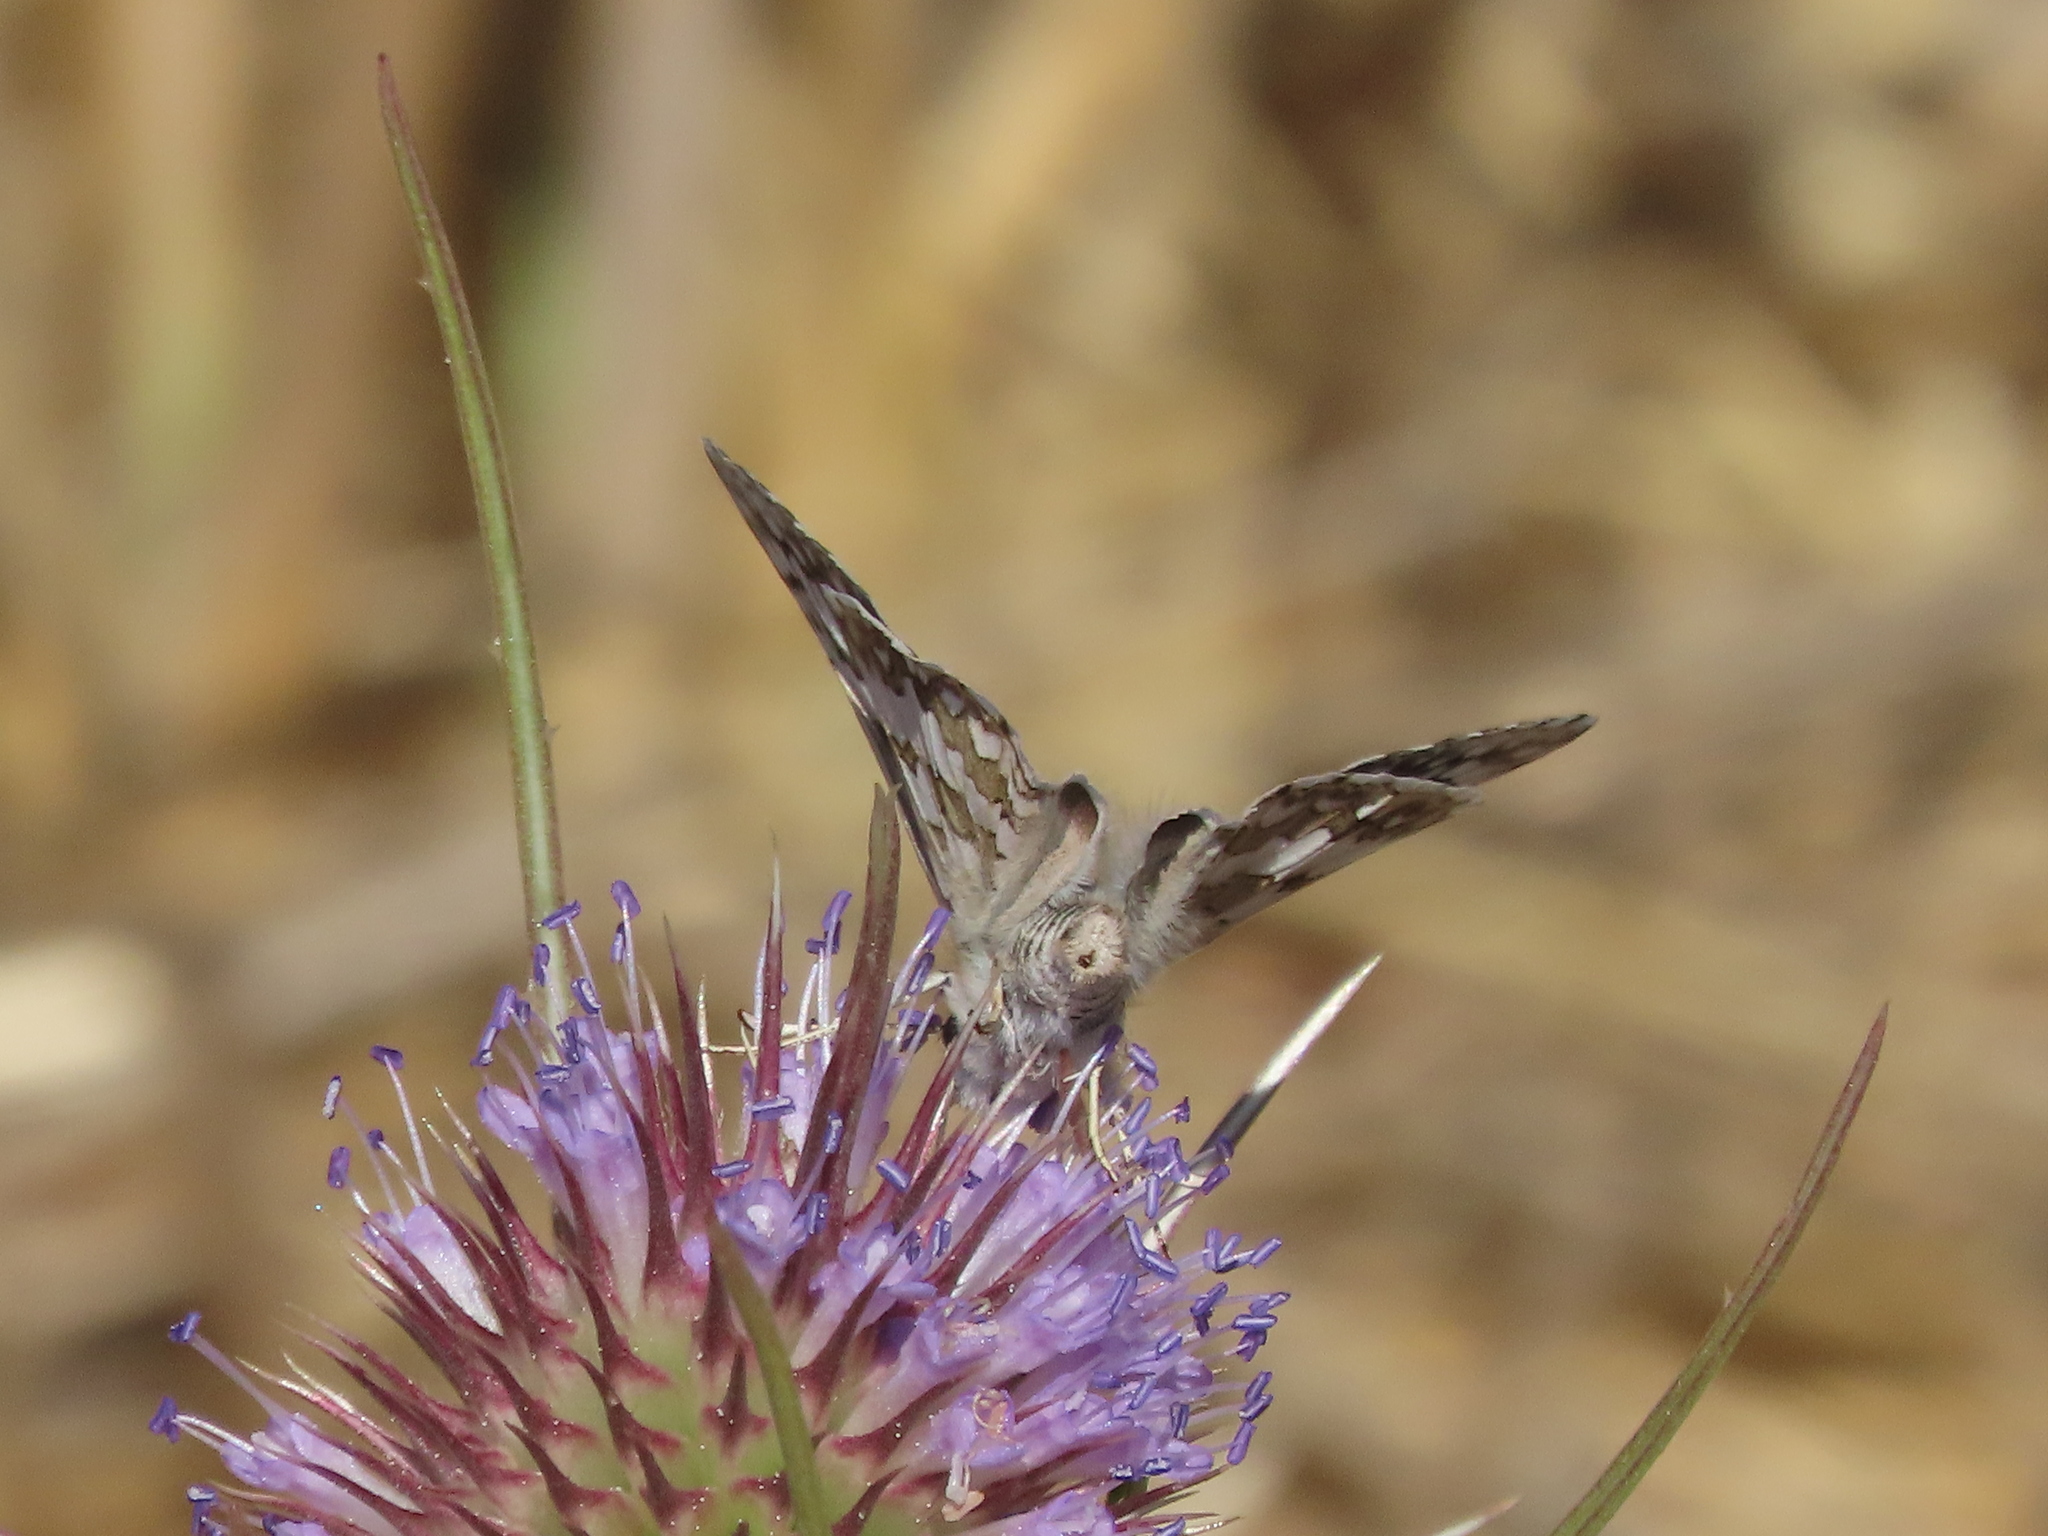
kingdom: Animalia
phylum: Arthropoda
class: Insecta
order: Lepidoptera
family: Hesperiidae
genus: Burnsius
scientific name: Burnsius communis
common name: Common checkered-skipper
